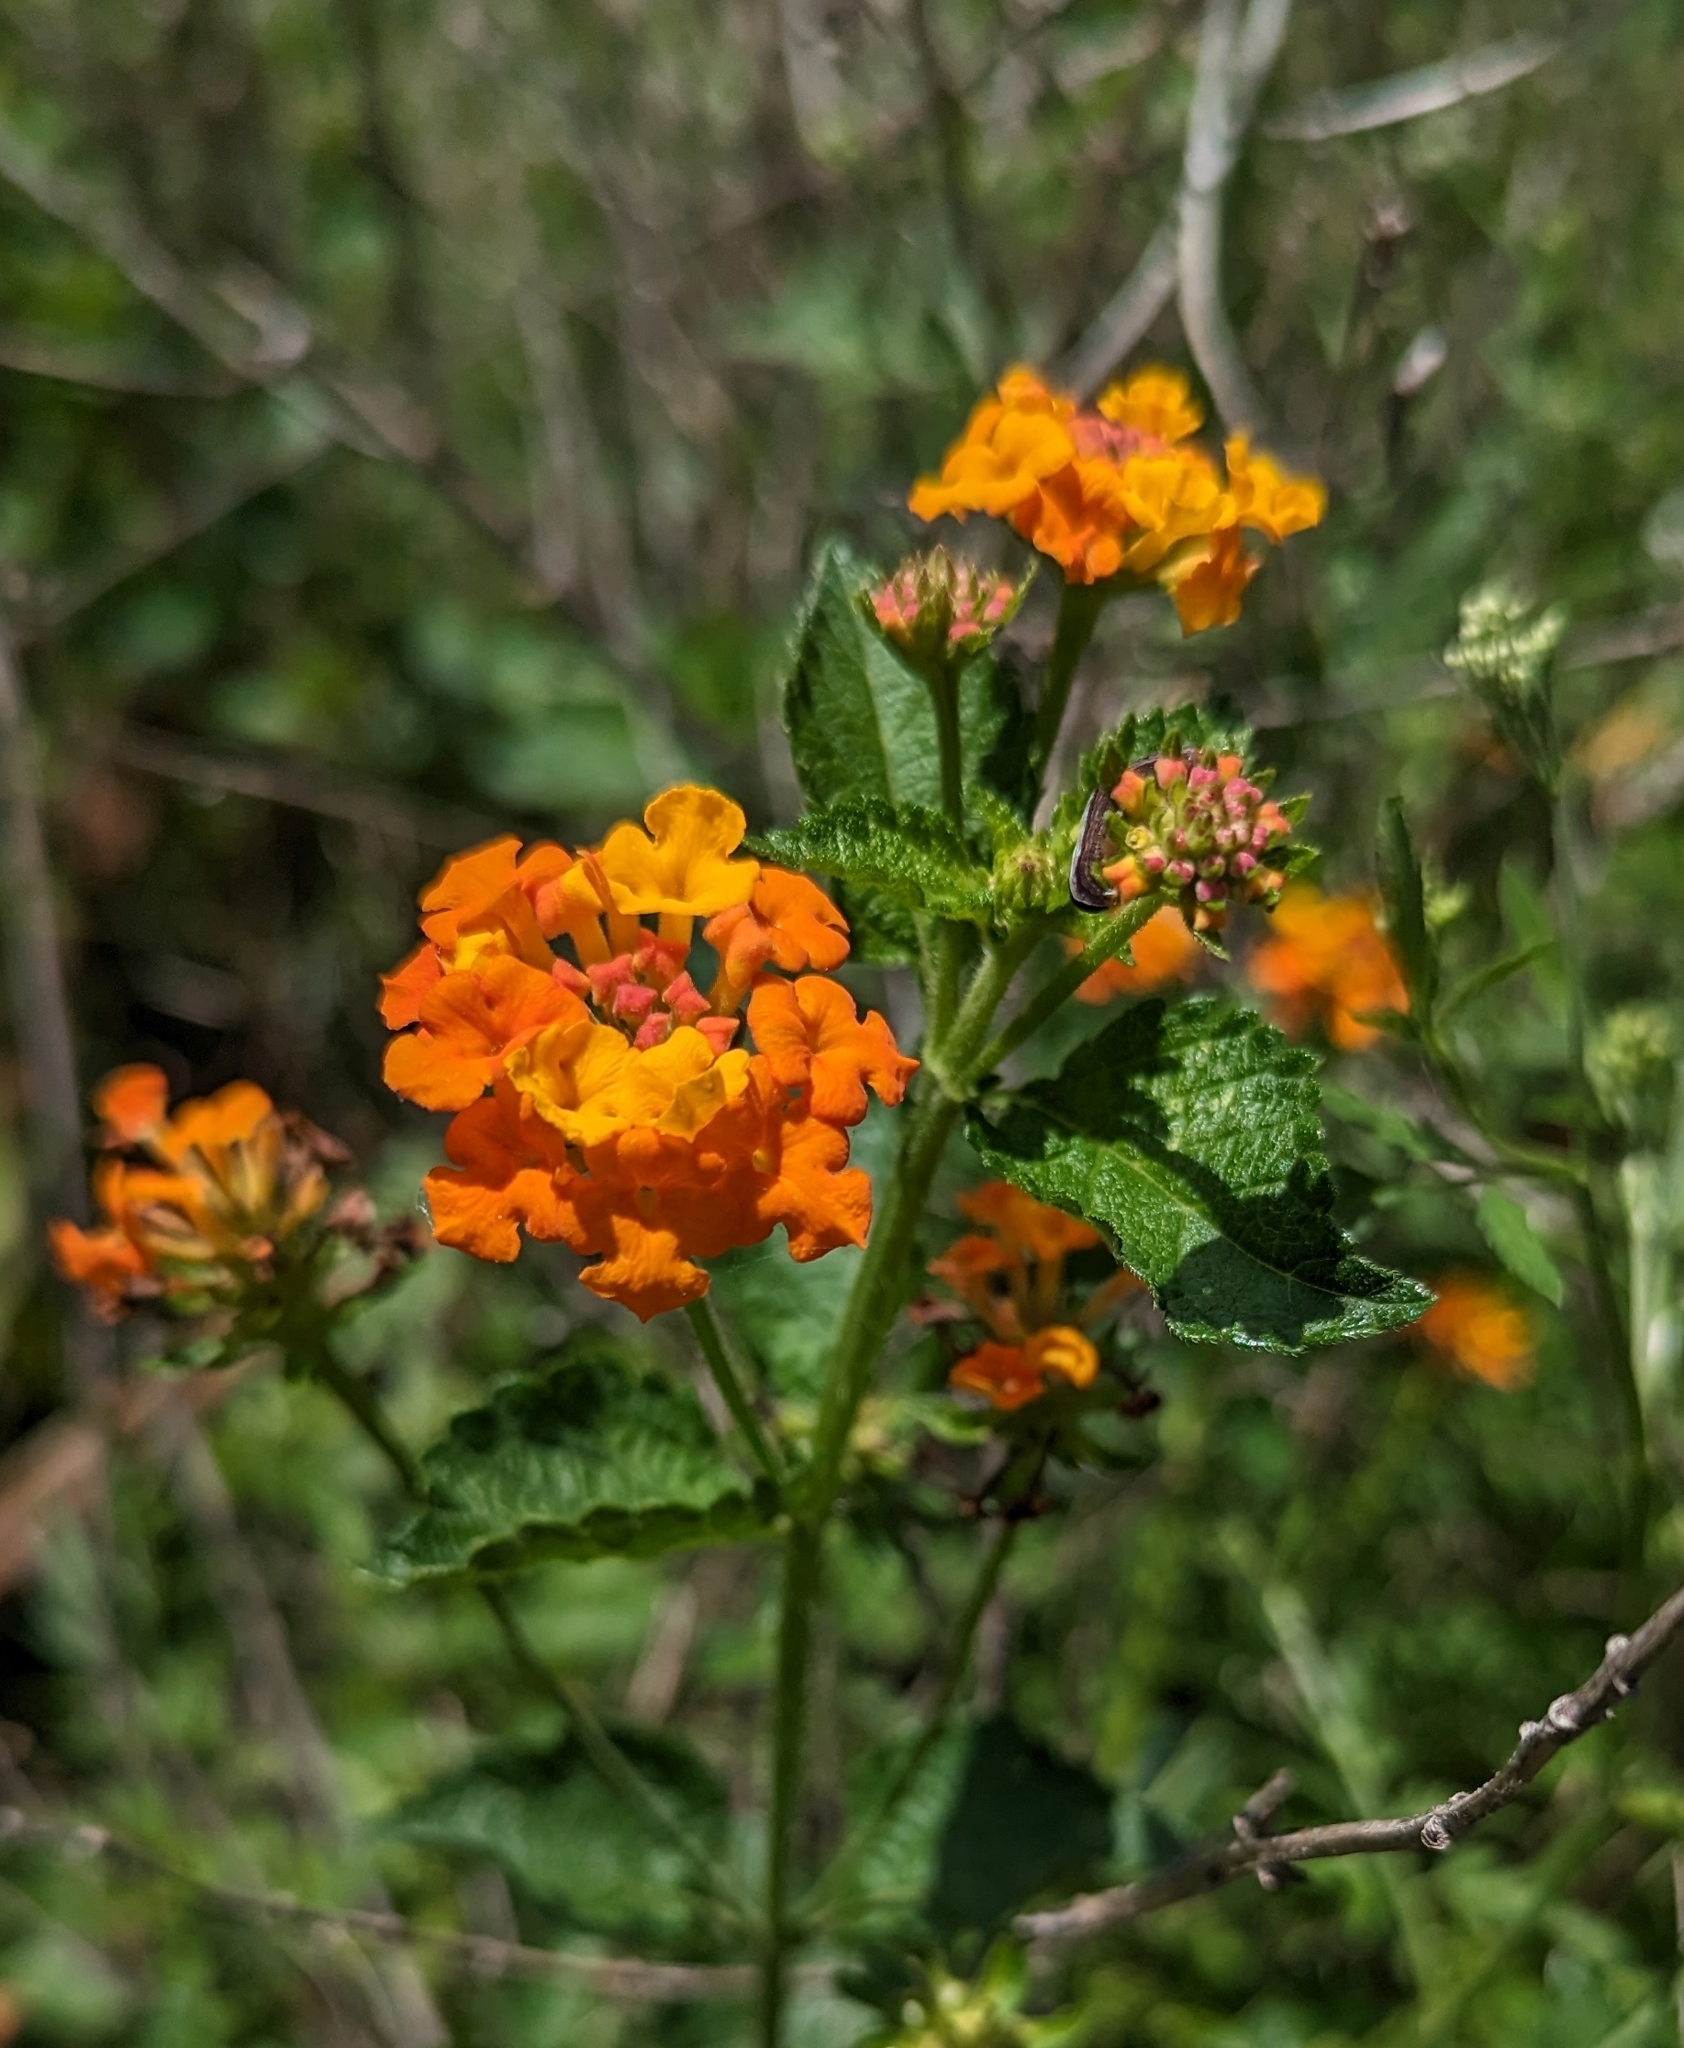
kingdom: Plantae
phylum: Tracheophyta
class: Magnoliopsida
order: Lamiales
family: Verbenaceae
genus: Lantana
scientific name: Lantana urticoides
